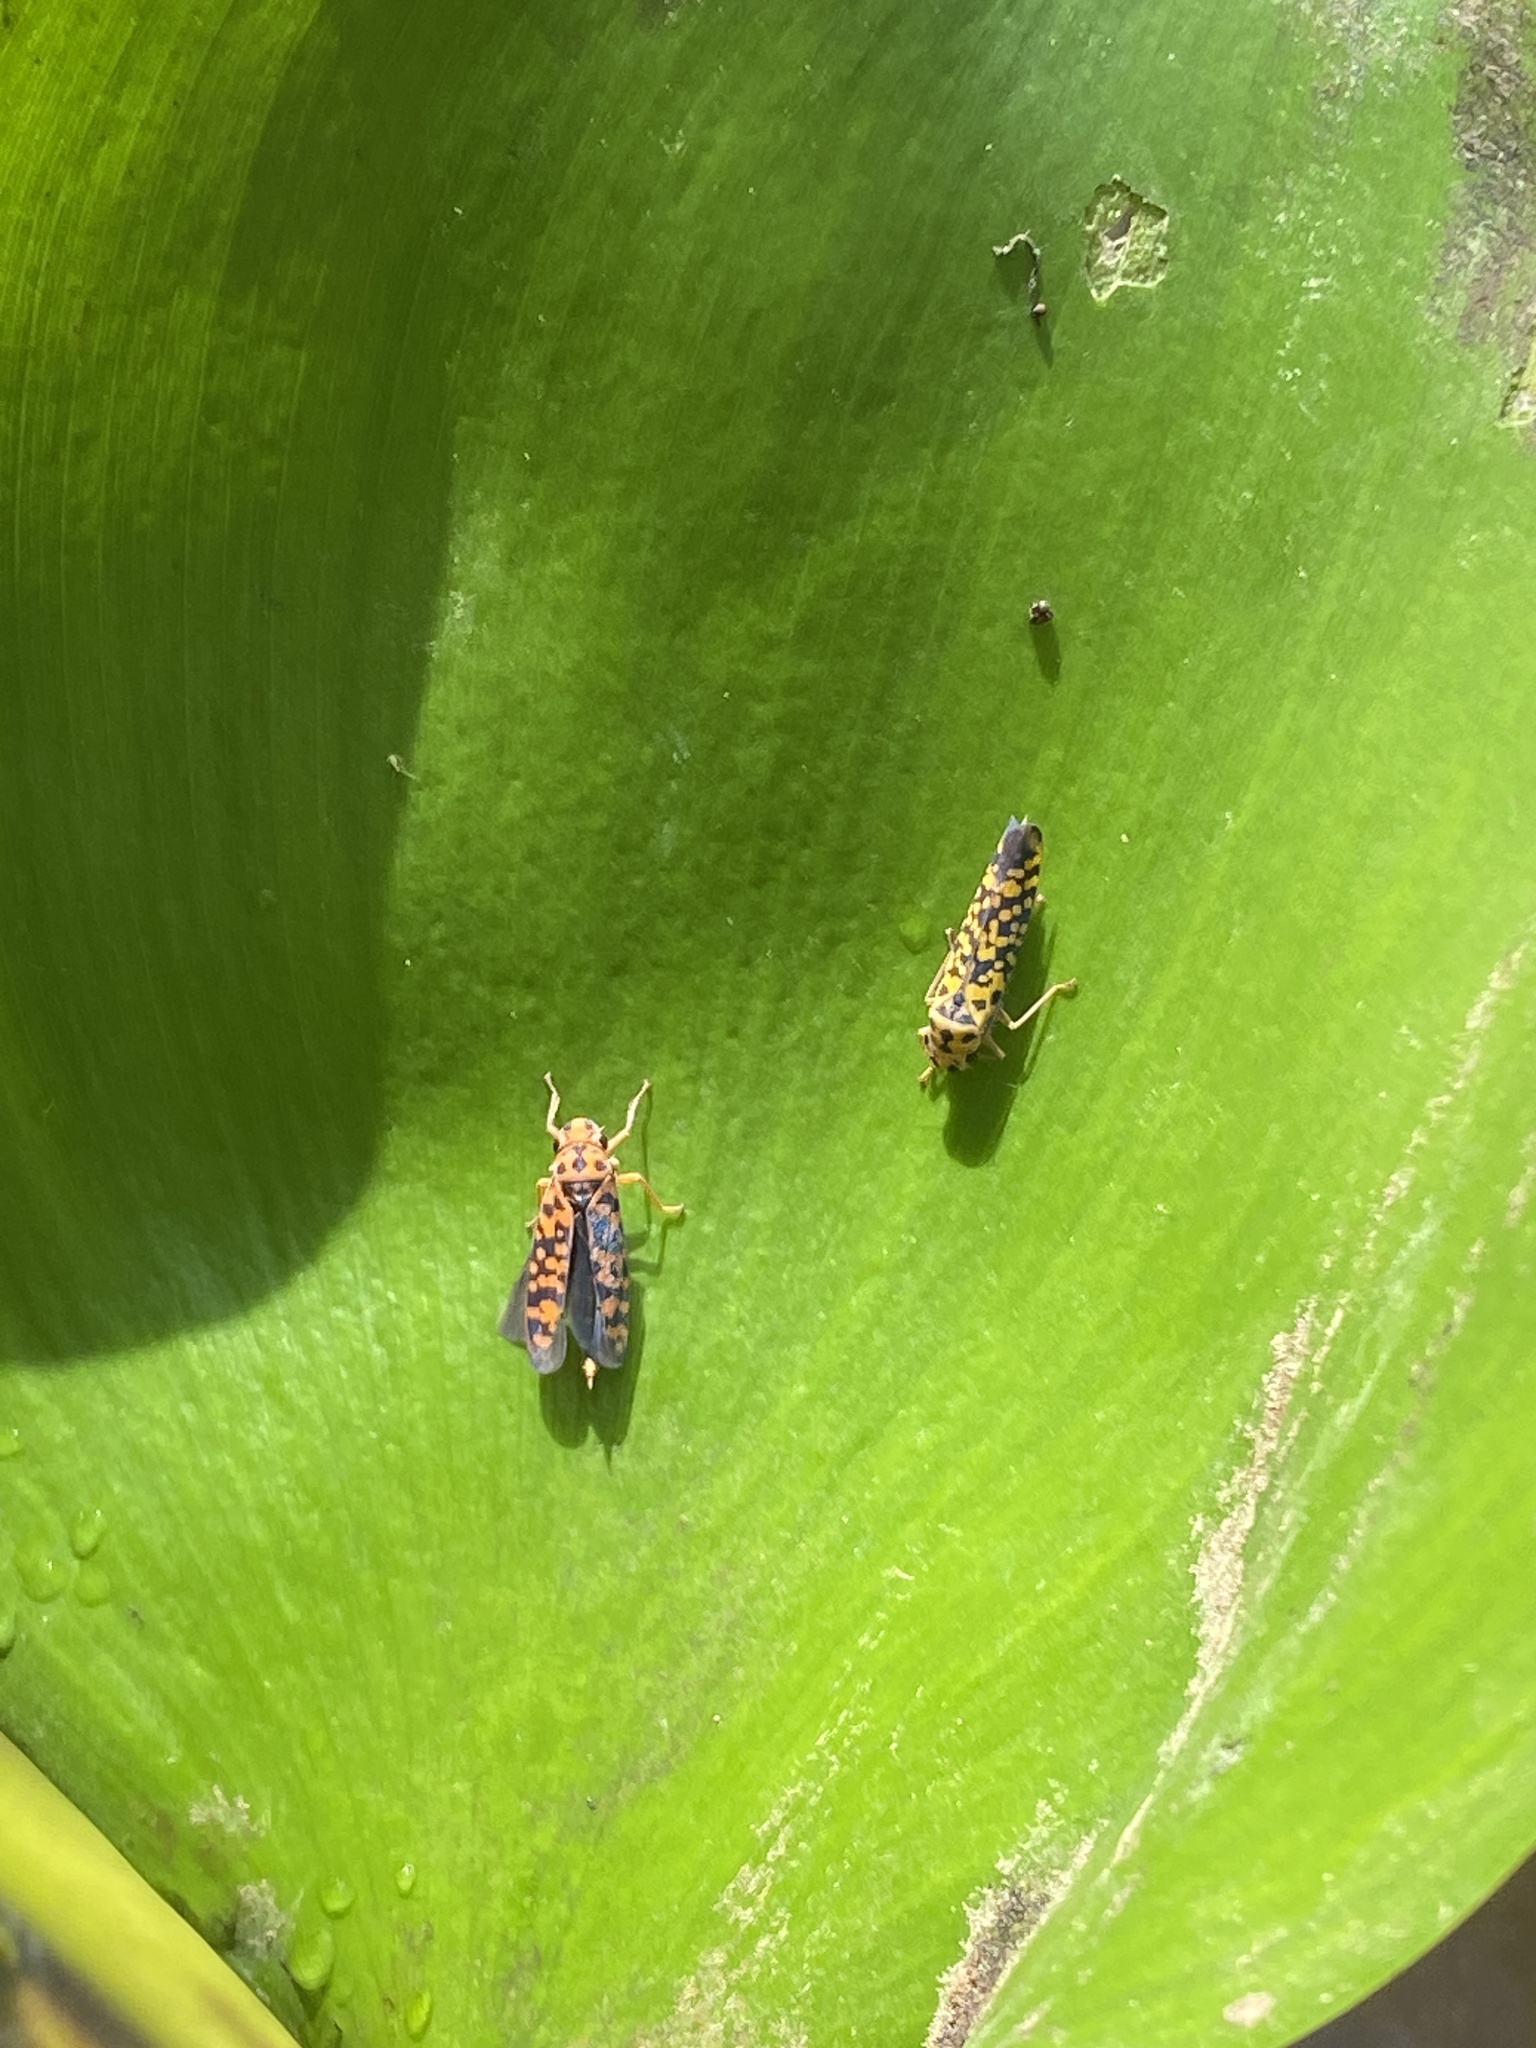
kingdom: Animalia
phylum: Arthropoda
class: Insecta
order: Hemiptera
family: Cicadellidae
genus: Pawiloma
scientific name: Pawiloma victima
